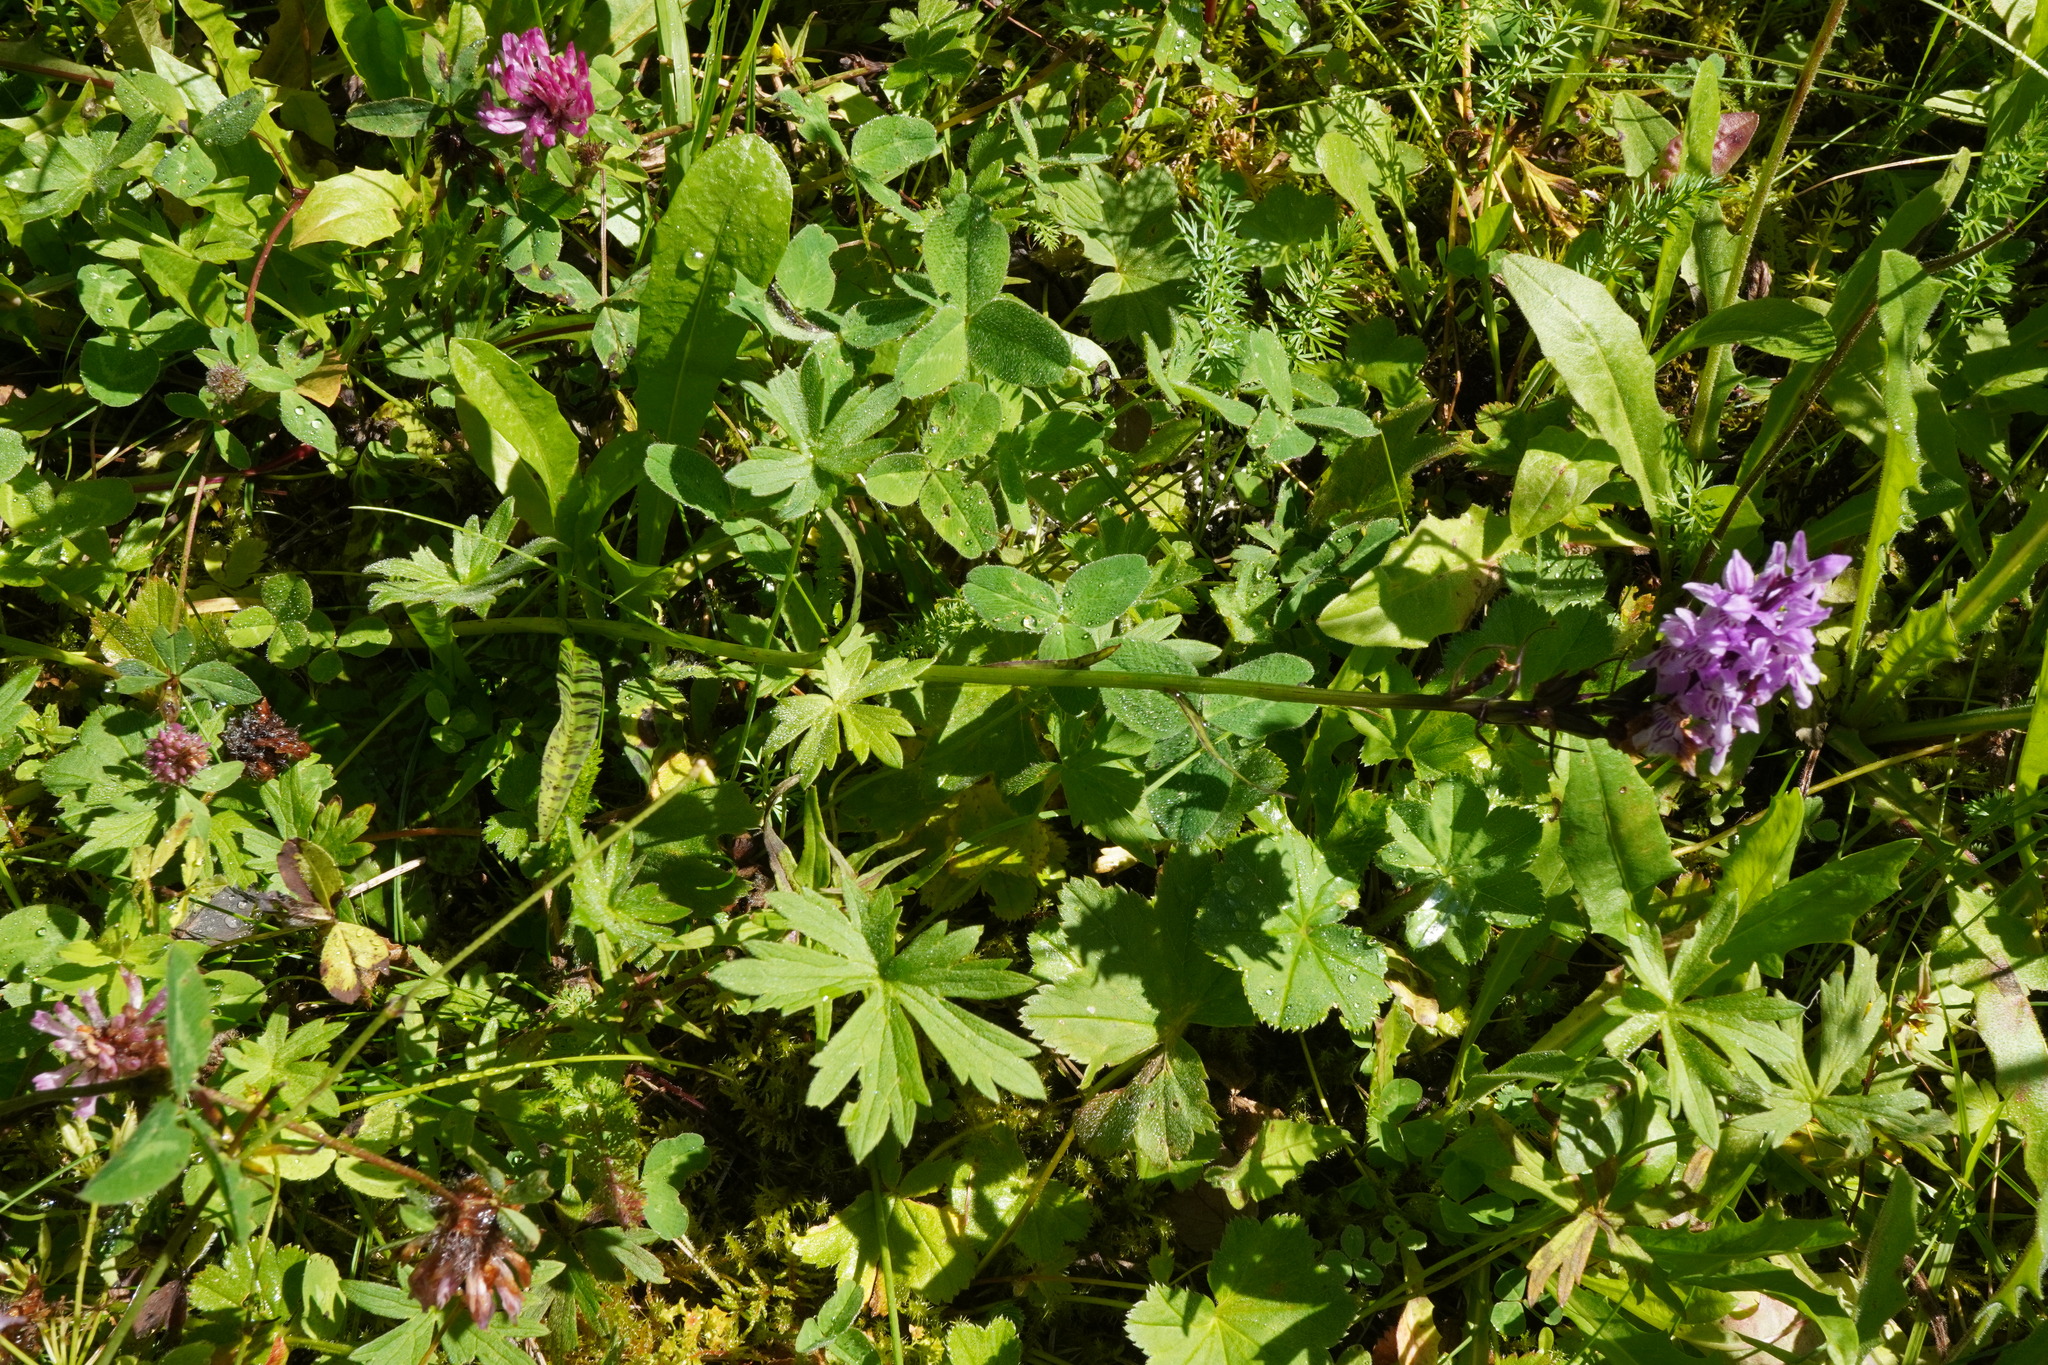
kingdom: Plantae
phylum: Tracheophyta
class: Liliopsida
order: Asparagales
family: Orchidaceae
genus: Dactylorhiza
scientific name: Dactylorhiza maculata
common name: Heath spotted-orchid
